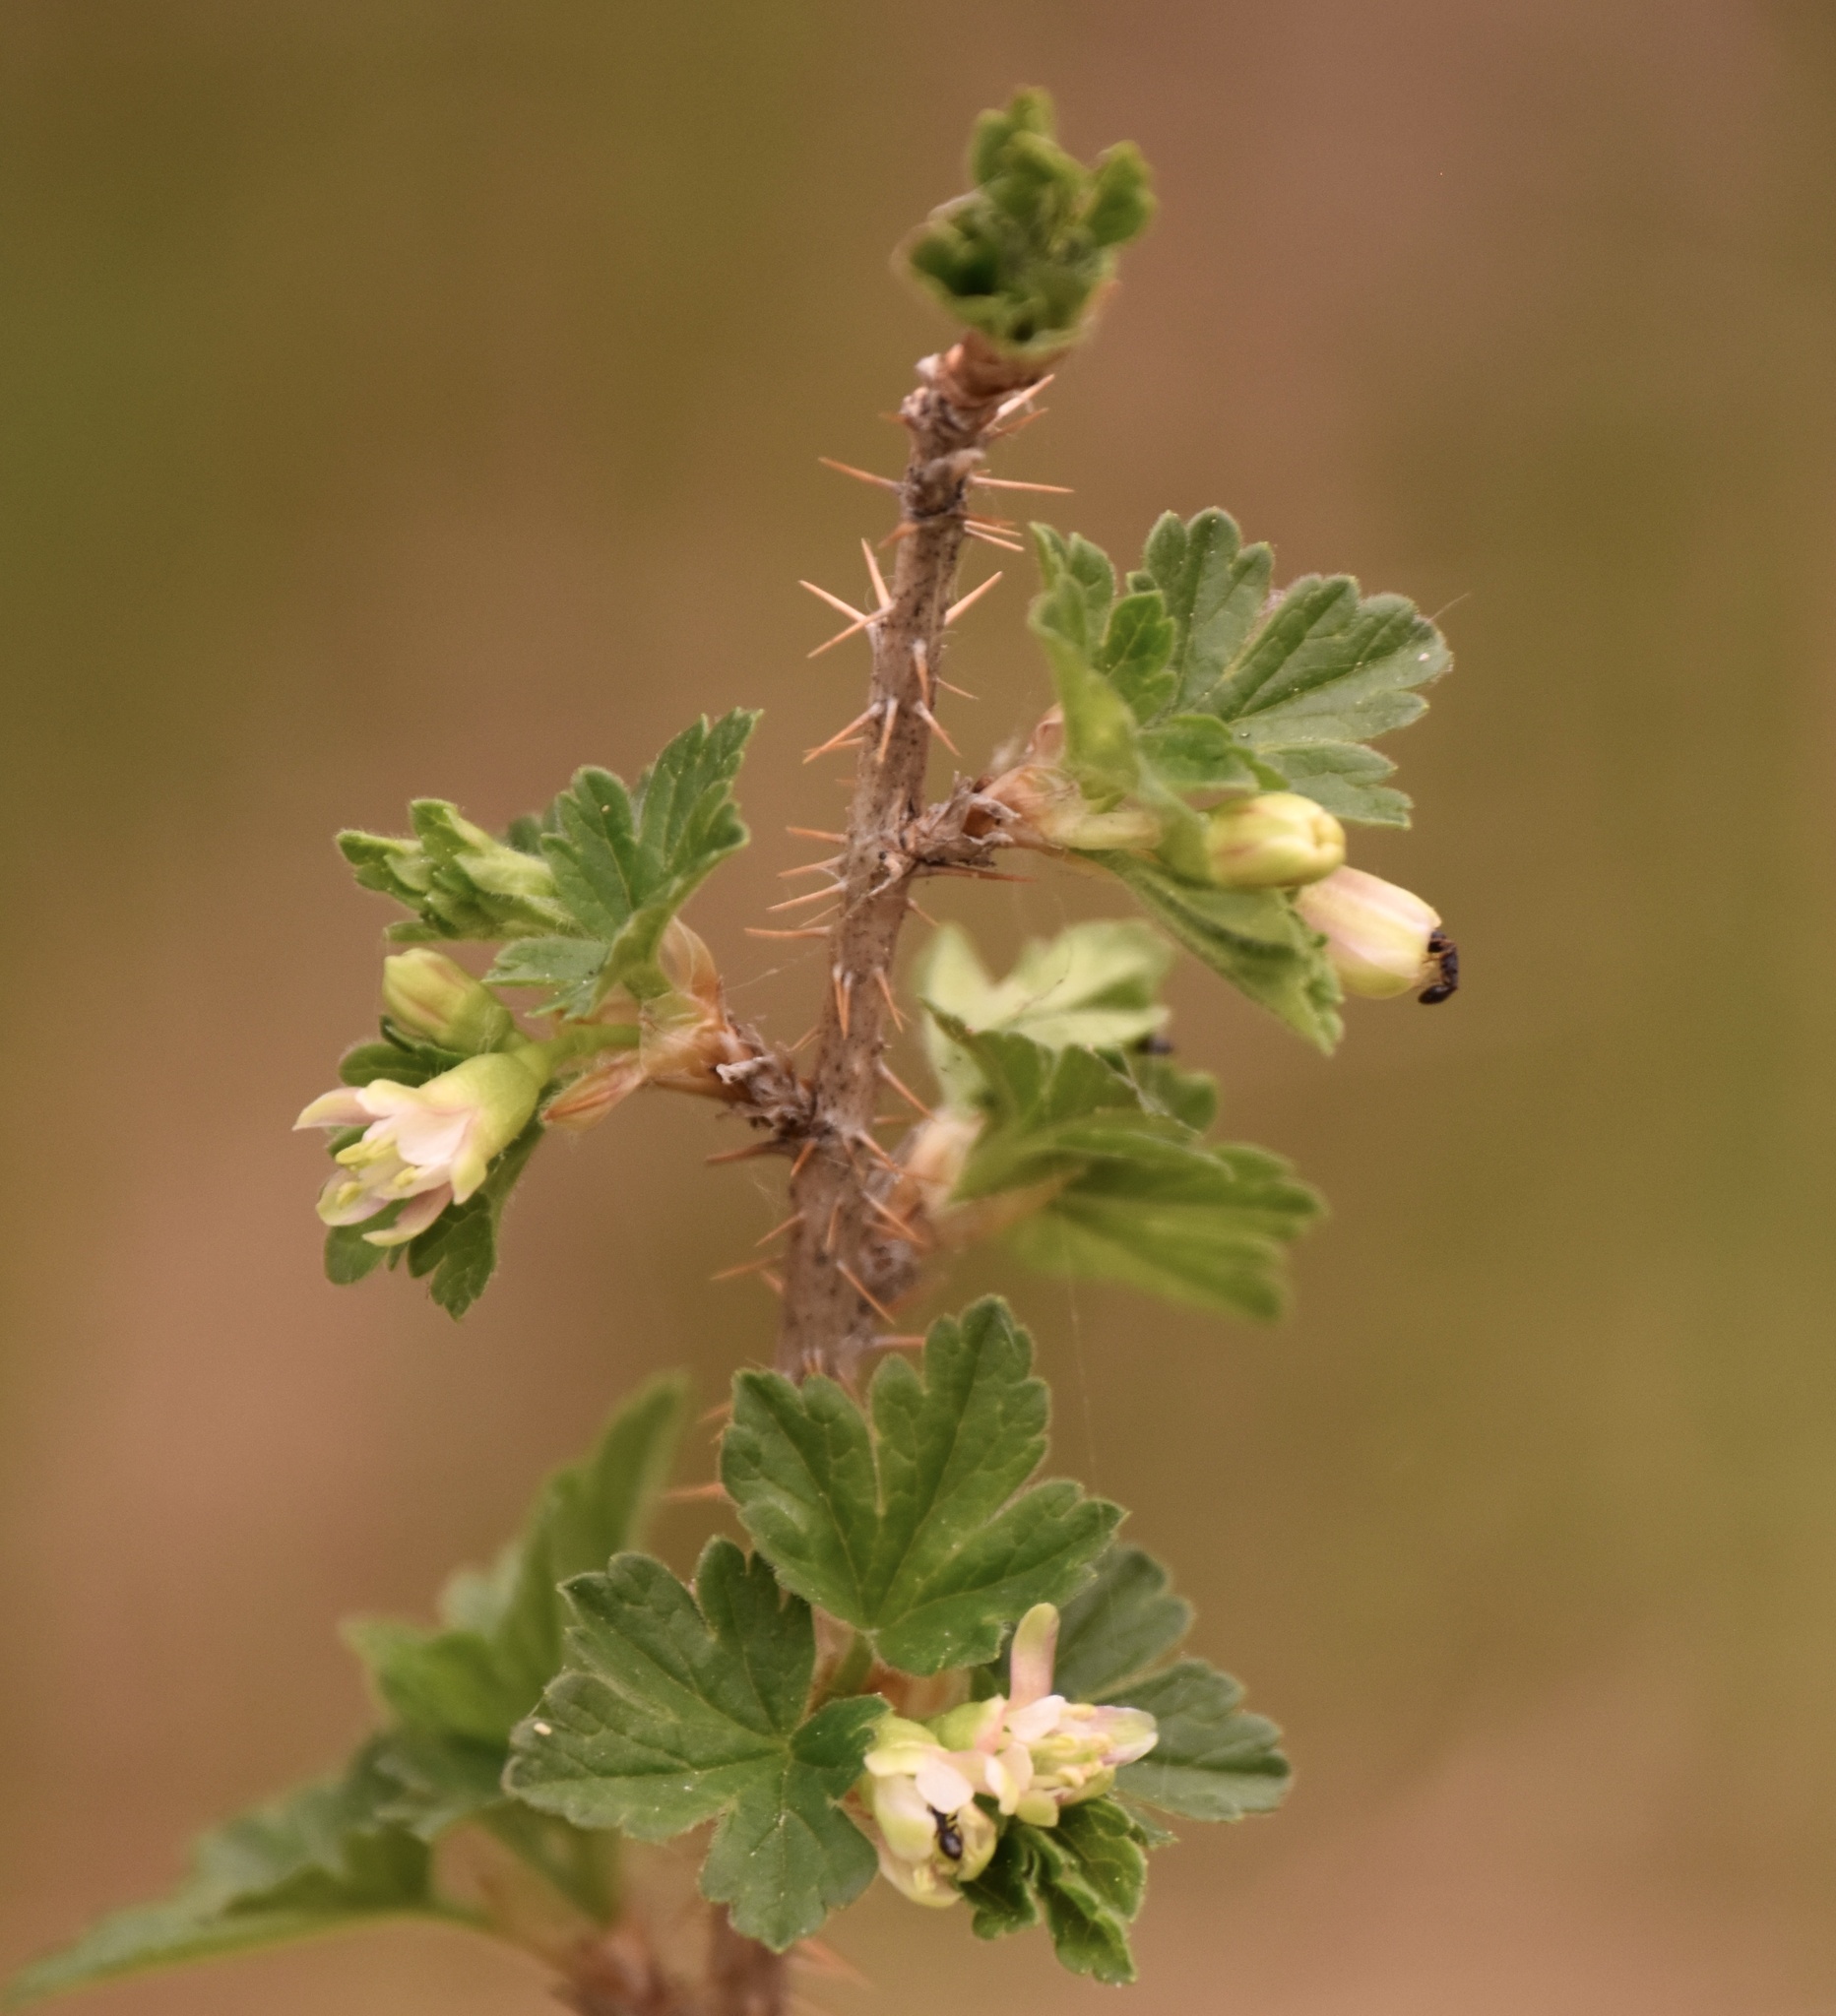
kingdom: Plantae
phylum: Tracheophyta
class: Magnoliopsida
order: Saxifragales
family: Grossulariaceae
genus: Ribes
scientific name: Ribes oxyacanthoides
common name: Northern gooseberry
